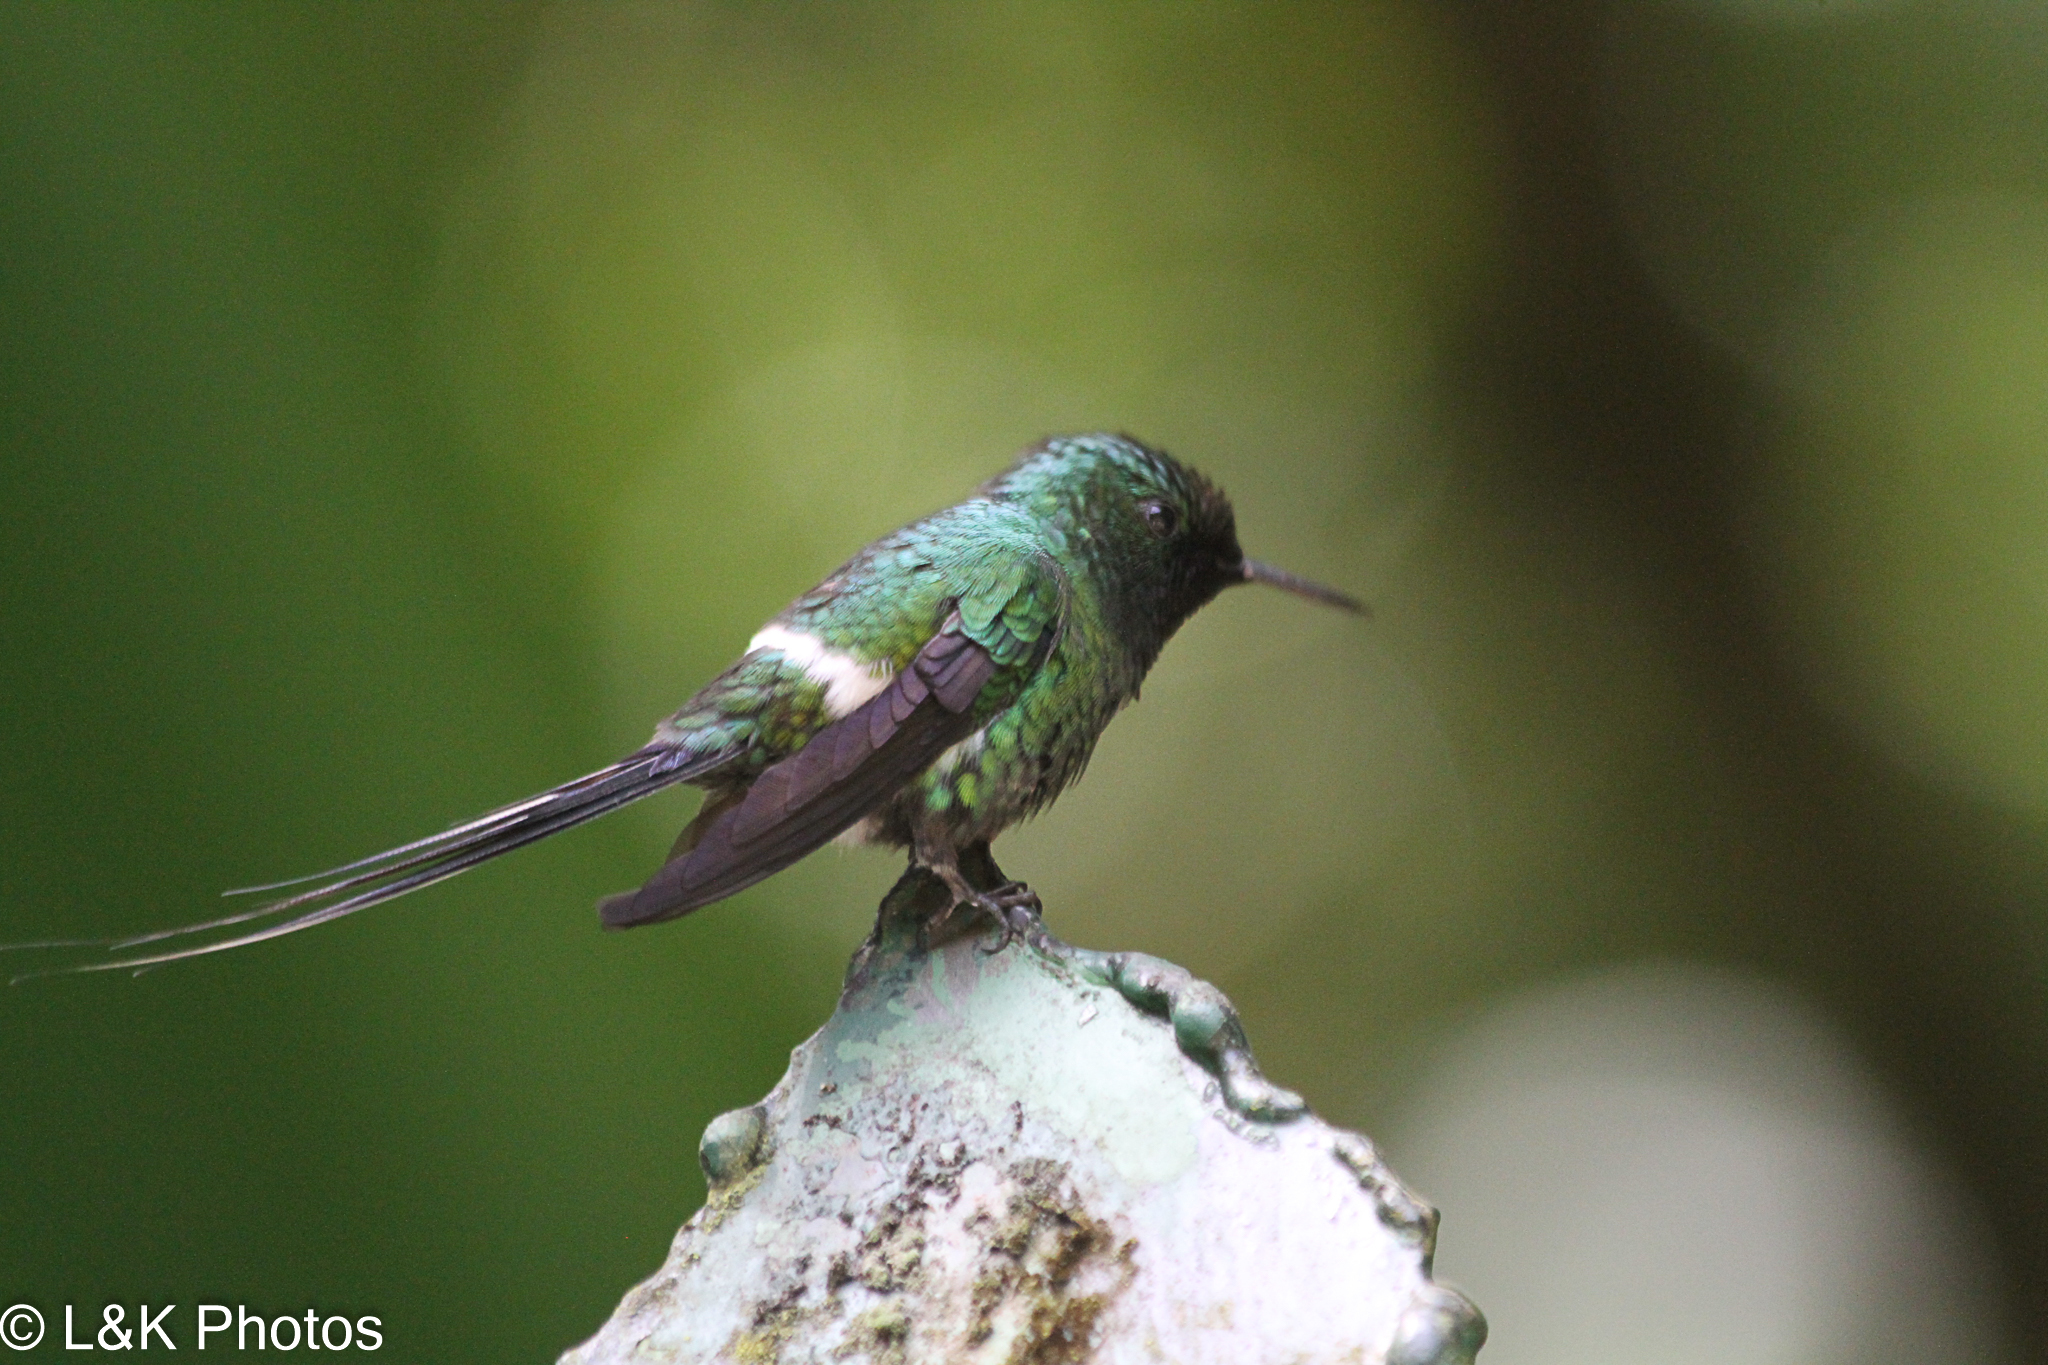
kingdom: Animalia
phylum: Chordata
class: Aves
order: Apodiformes
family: Trochilidae
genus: Discosura
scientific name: Discosura conversii
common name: Green thorntail
